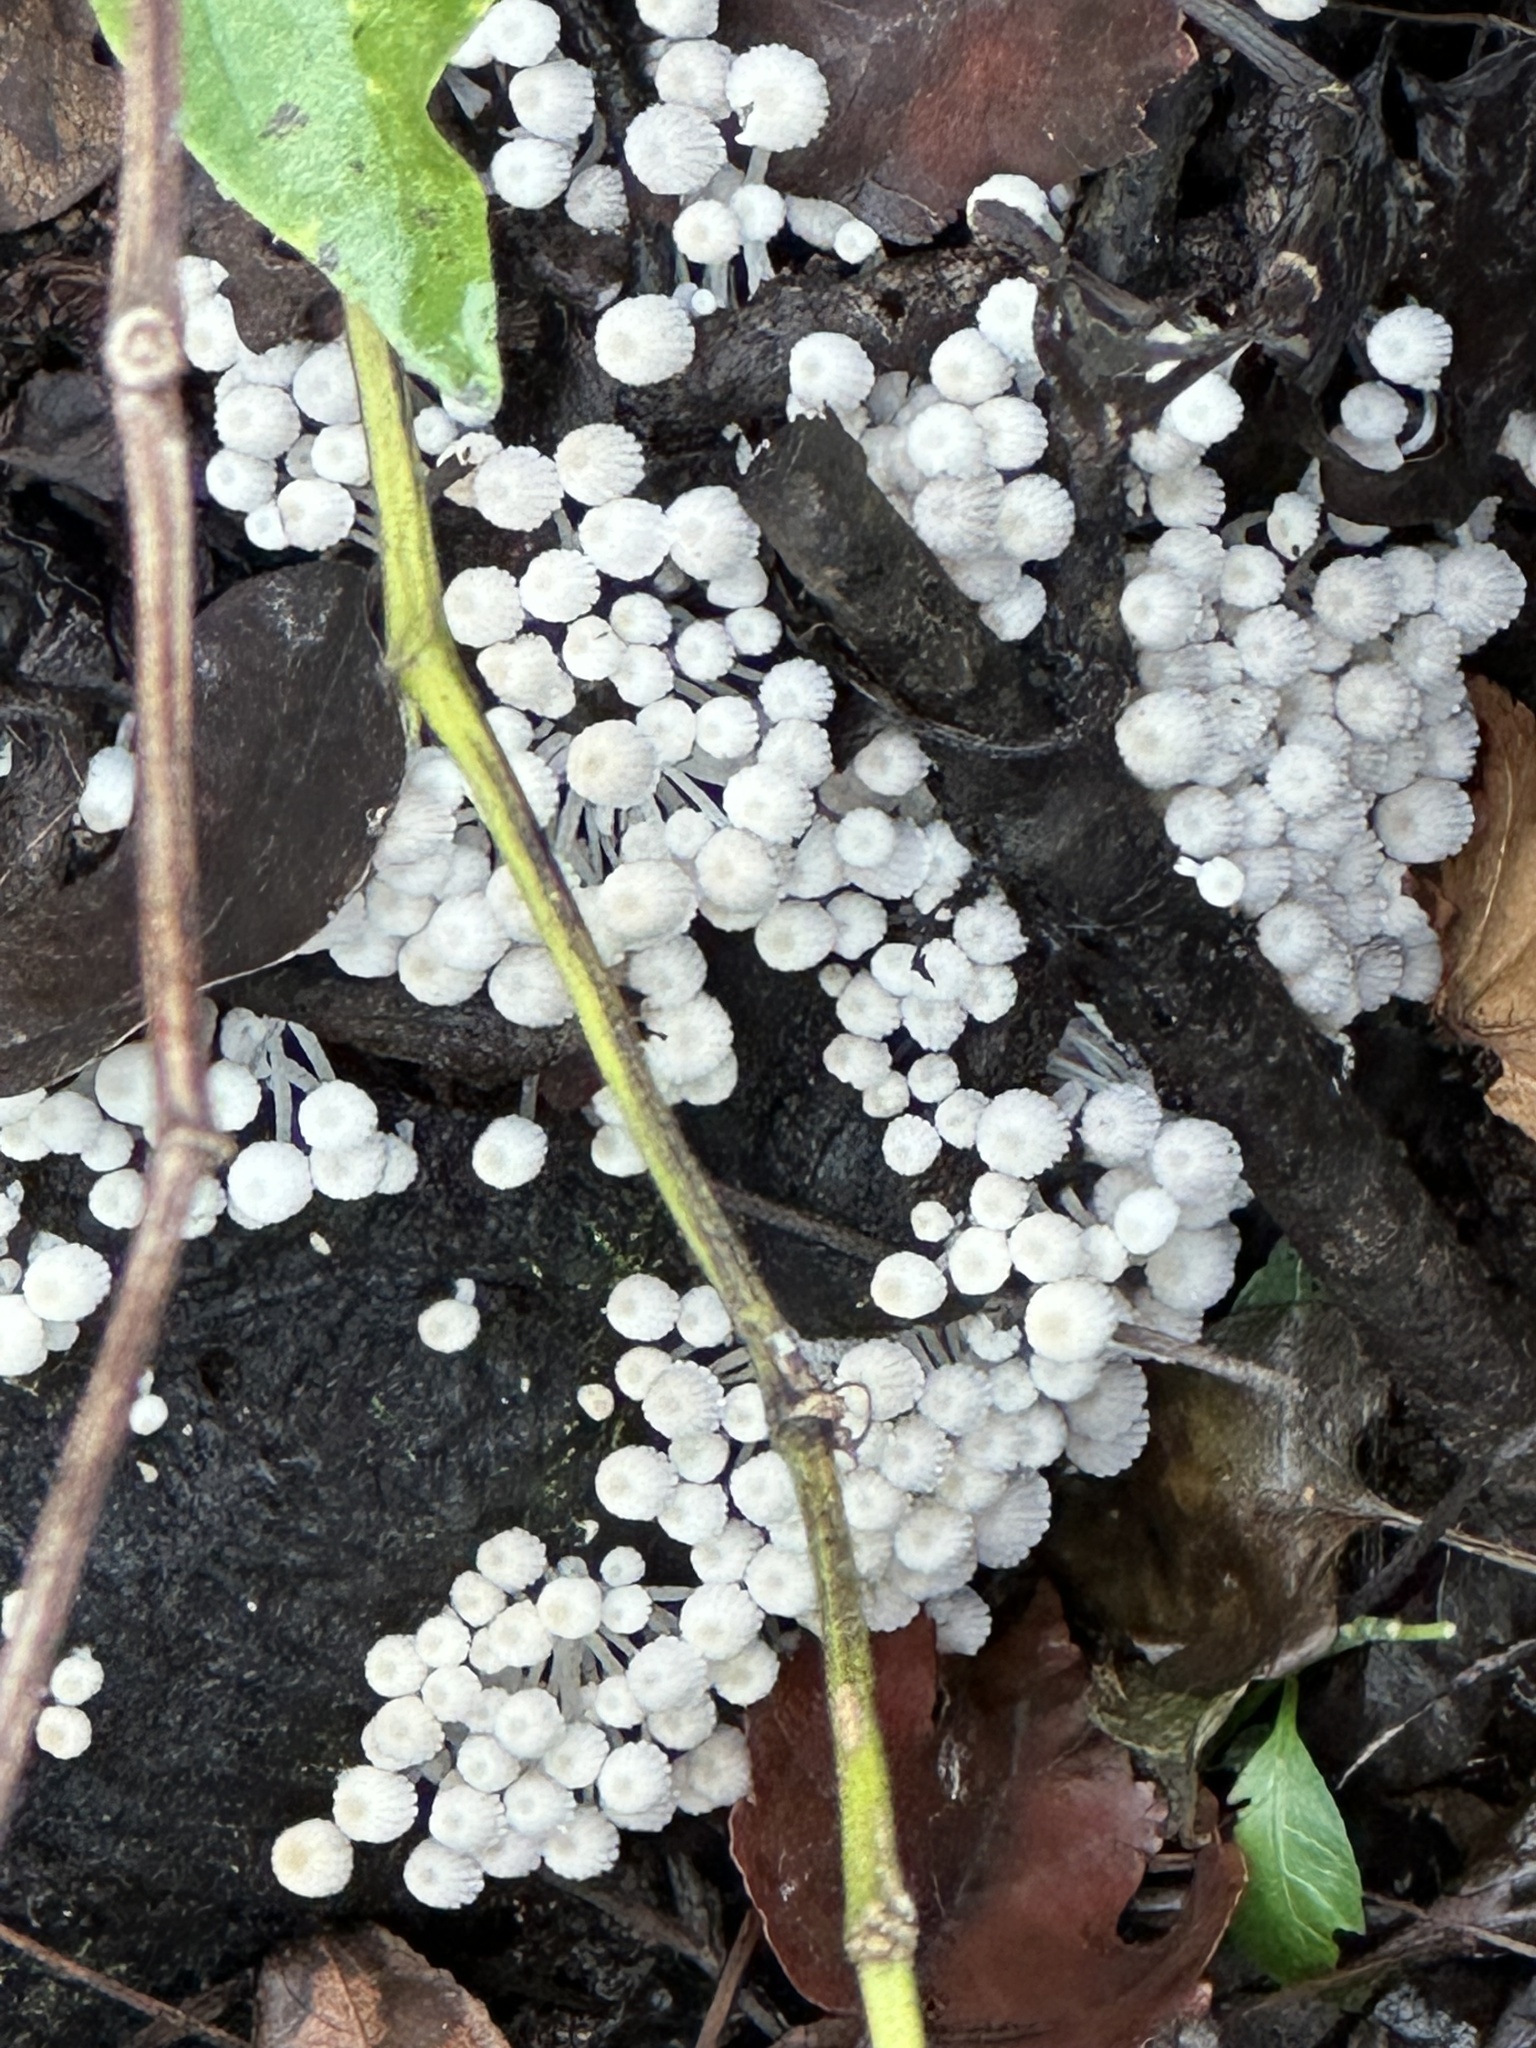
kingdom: Fungi
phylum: Basidiomycota
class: Agaricomycetes
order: Agaricales
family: Psathyrellaceae
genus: Coprinellus
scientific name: Coprinellus disseminatus
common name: Fairies' bonnets
